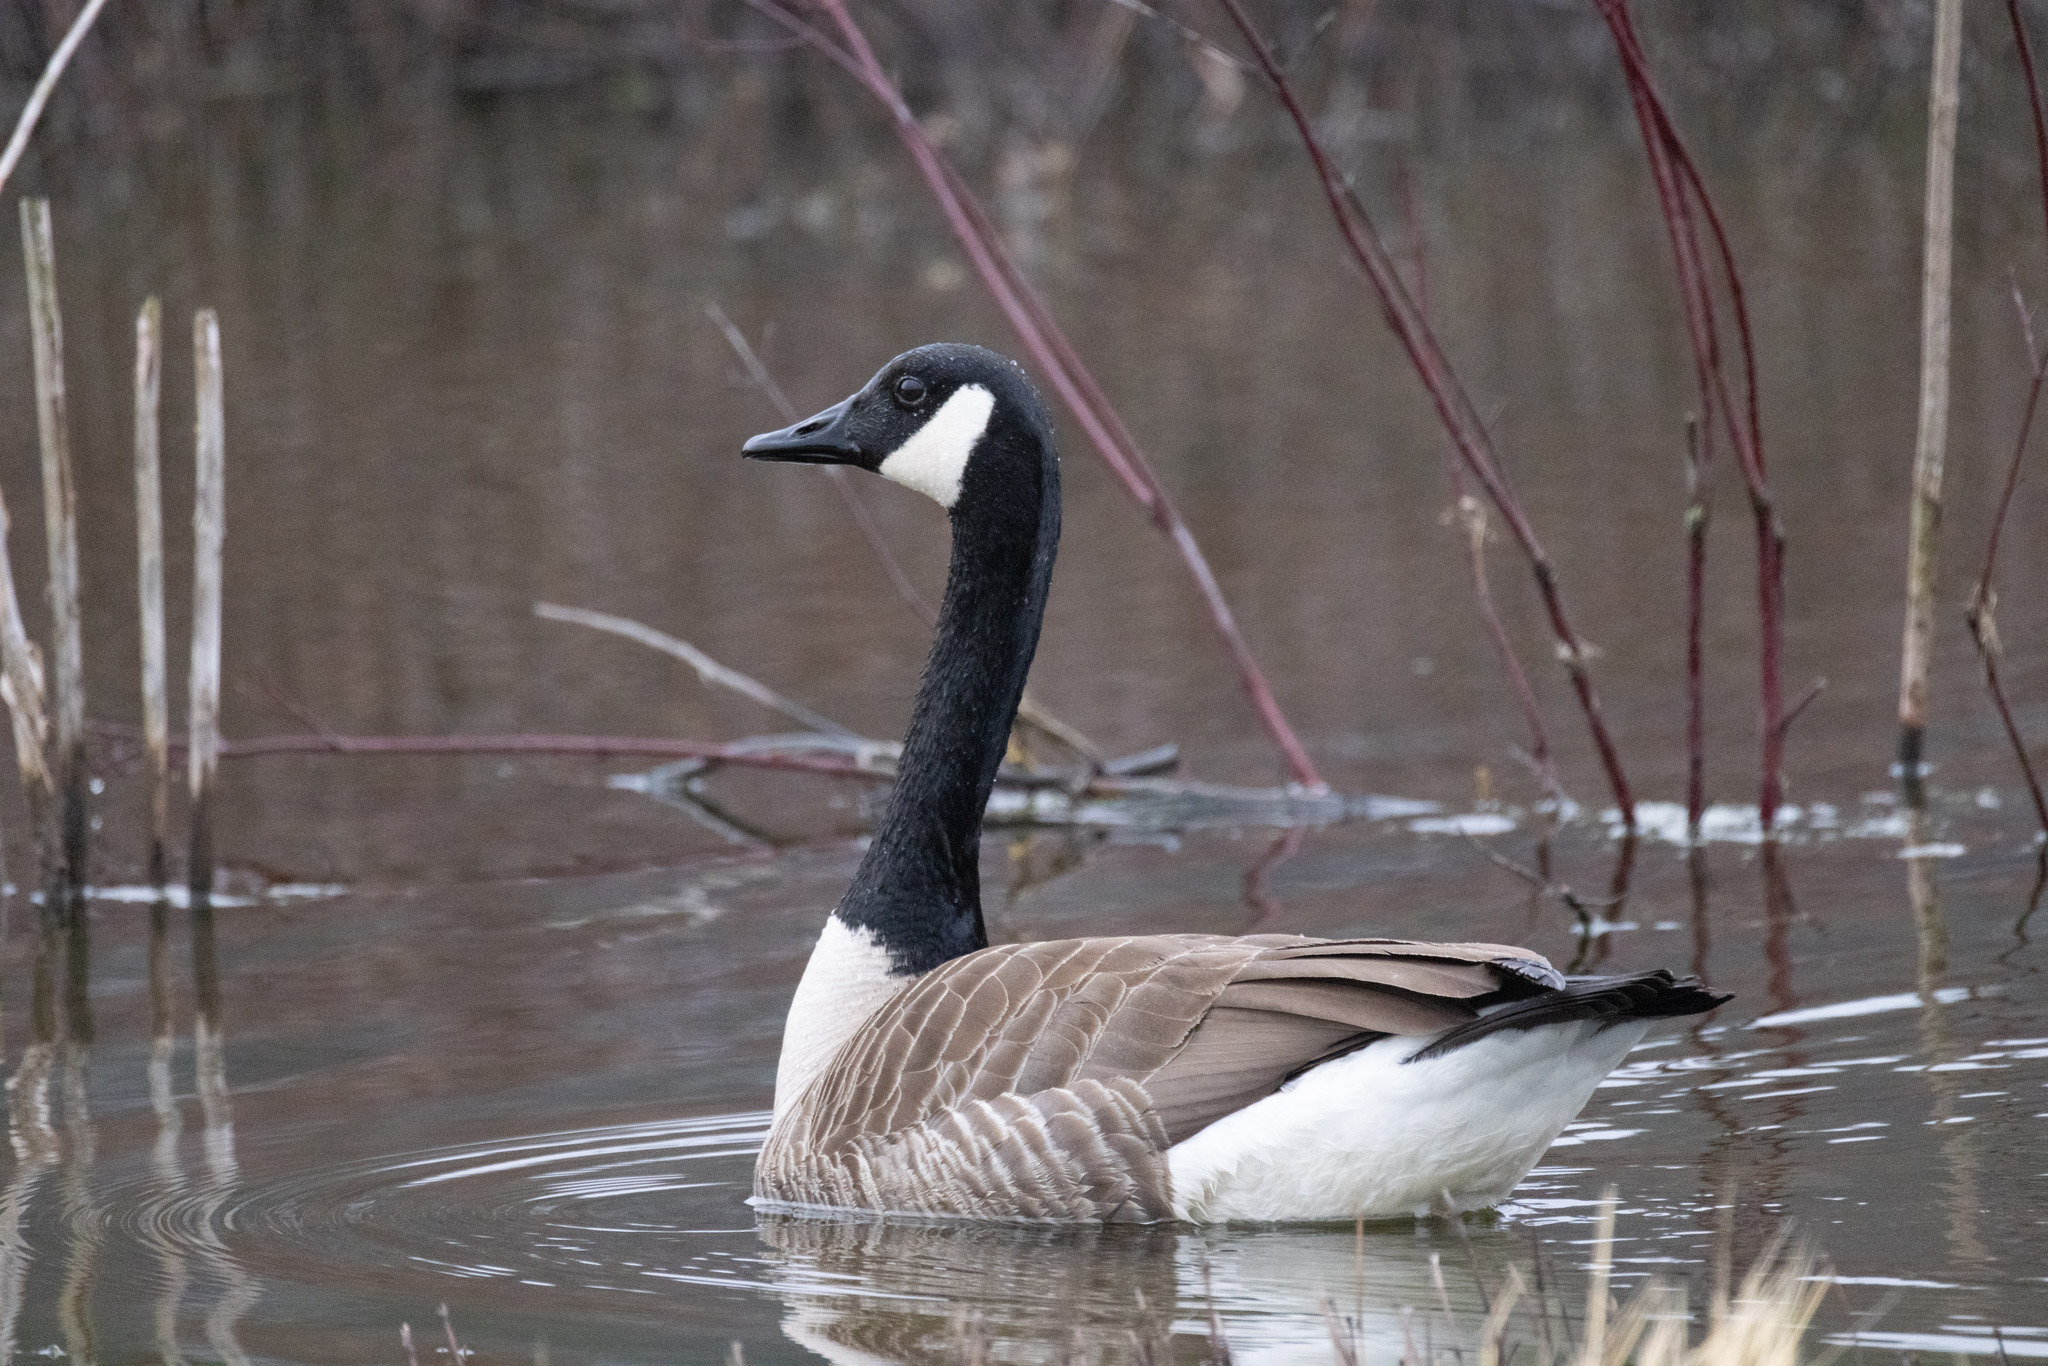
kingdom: Animalia
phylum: Chordata
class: Aves
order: Anseriformes
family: Anatidae
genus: Branta
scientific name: Branta canadensis
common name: Canada goose
